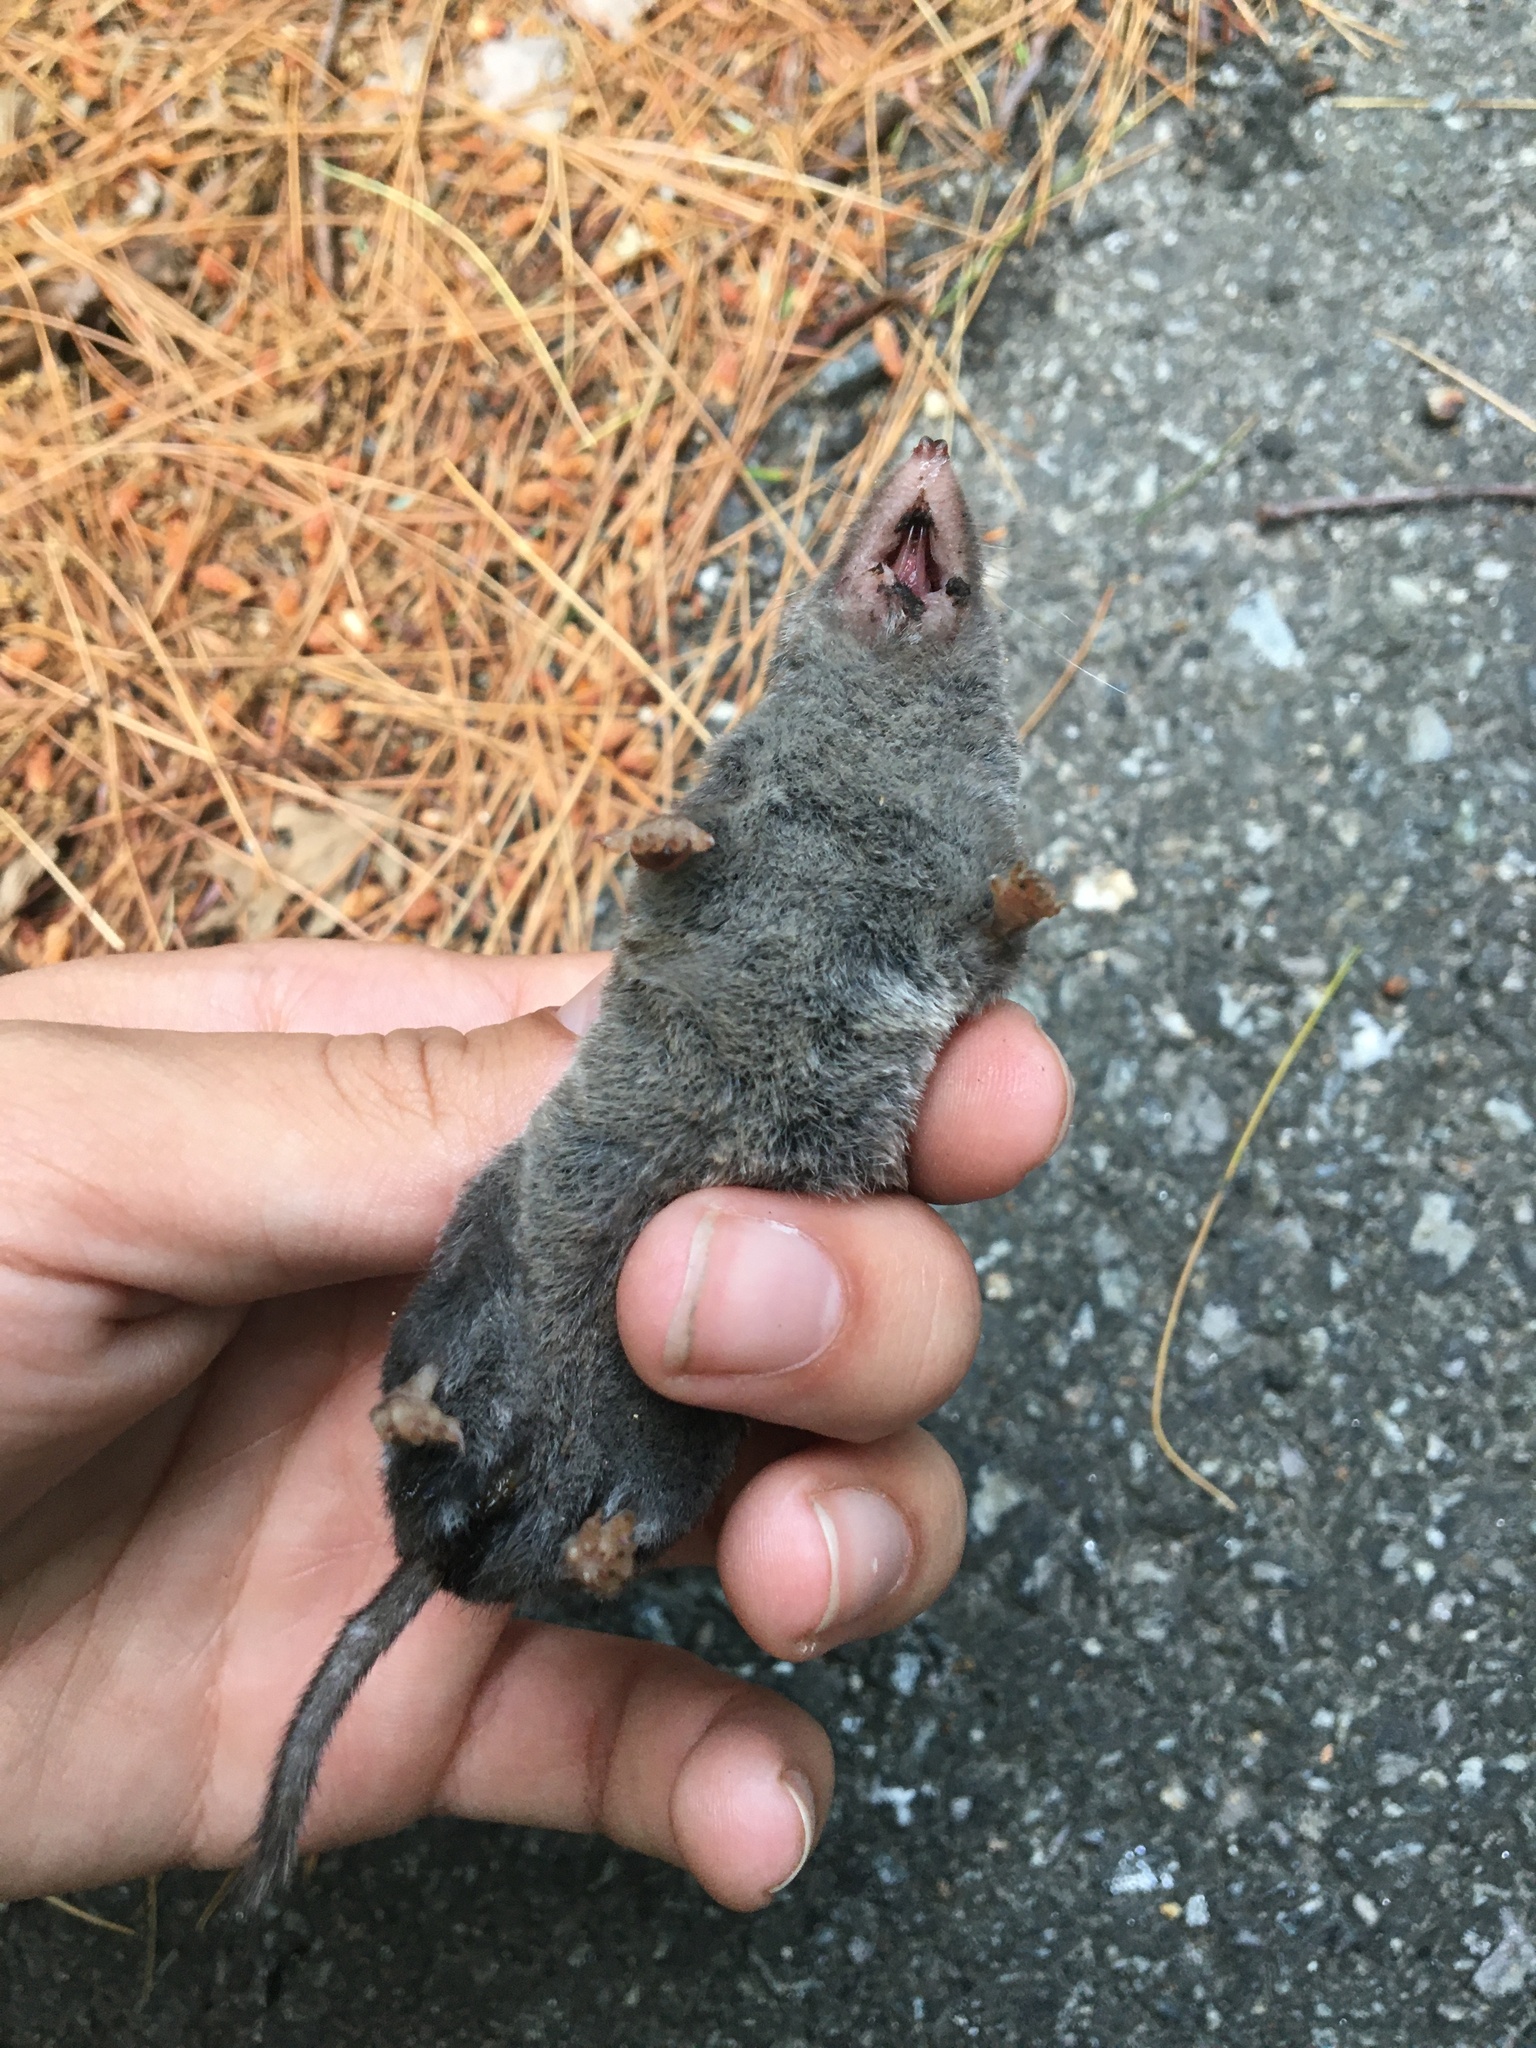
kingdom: Animalia
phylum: Chordata
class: Mammalia
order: Soricomorpha
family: Soricidae
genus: Blarina
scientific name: Blarina brevicauda
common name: Northern short-tailed shrew
